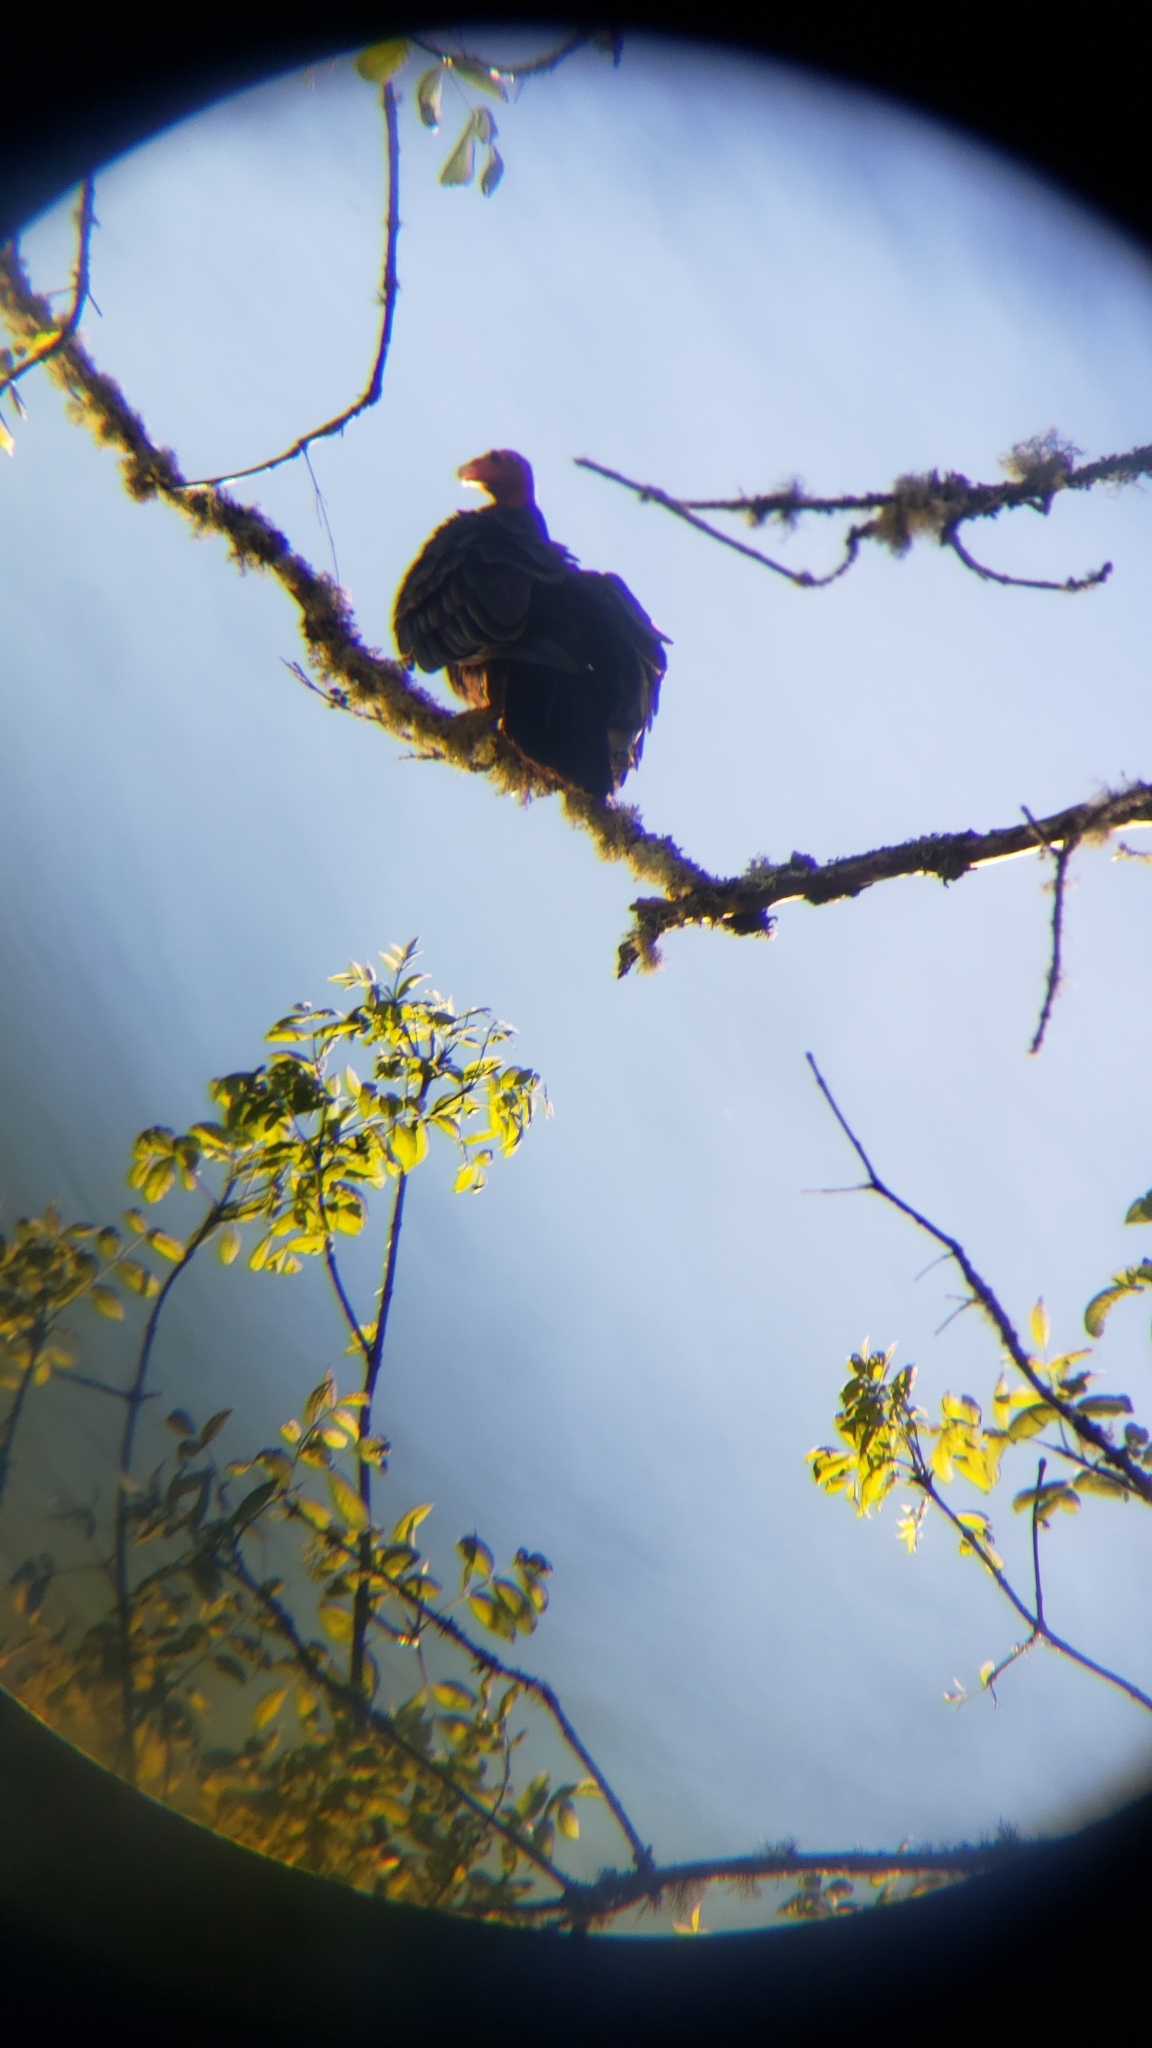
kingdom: Animalia
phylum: Chordata
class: Aves
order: Accipitriformes
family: Cathartidae
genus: Cathartes
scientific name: Cathartes aura
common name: Turkey vulture
